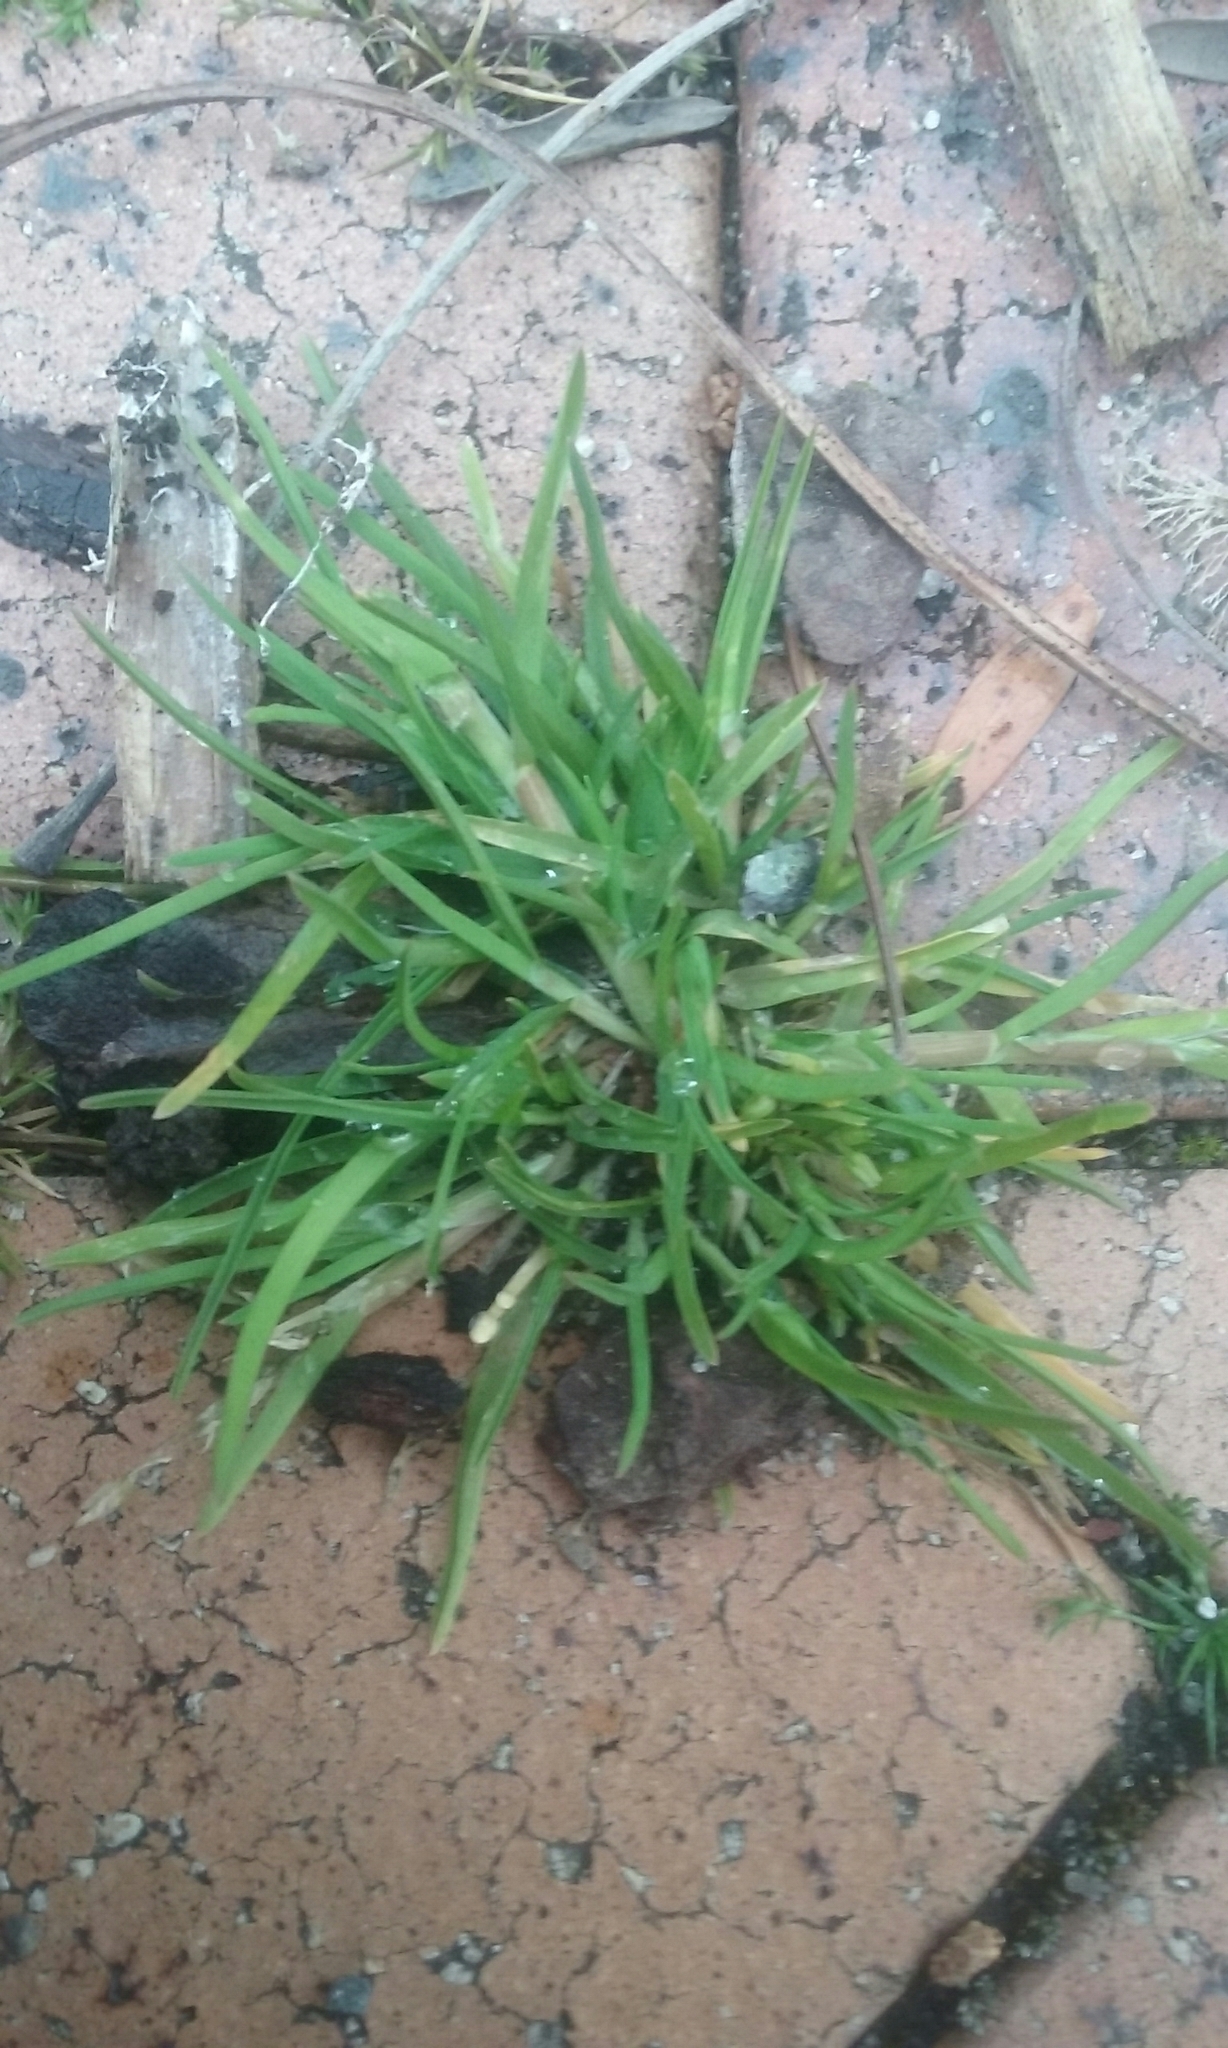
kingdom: Plantae
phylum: Tracheophyta
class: Liliopsida
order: Poales
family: Poaceae
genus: Poa
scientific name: Poa annua
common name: Annual bluegrass
